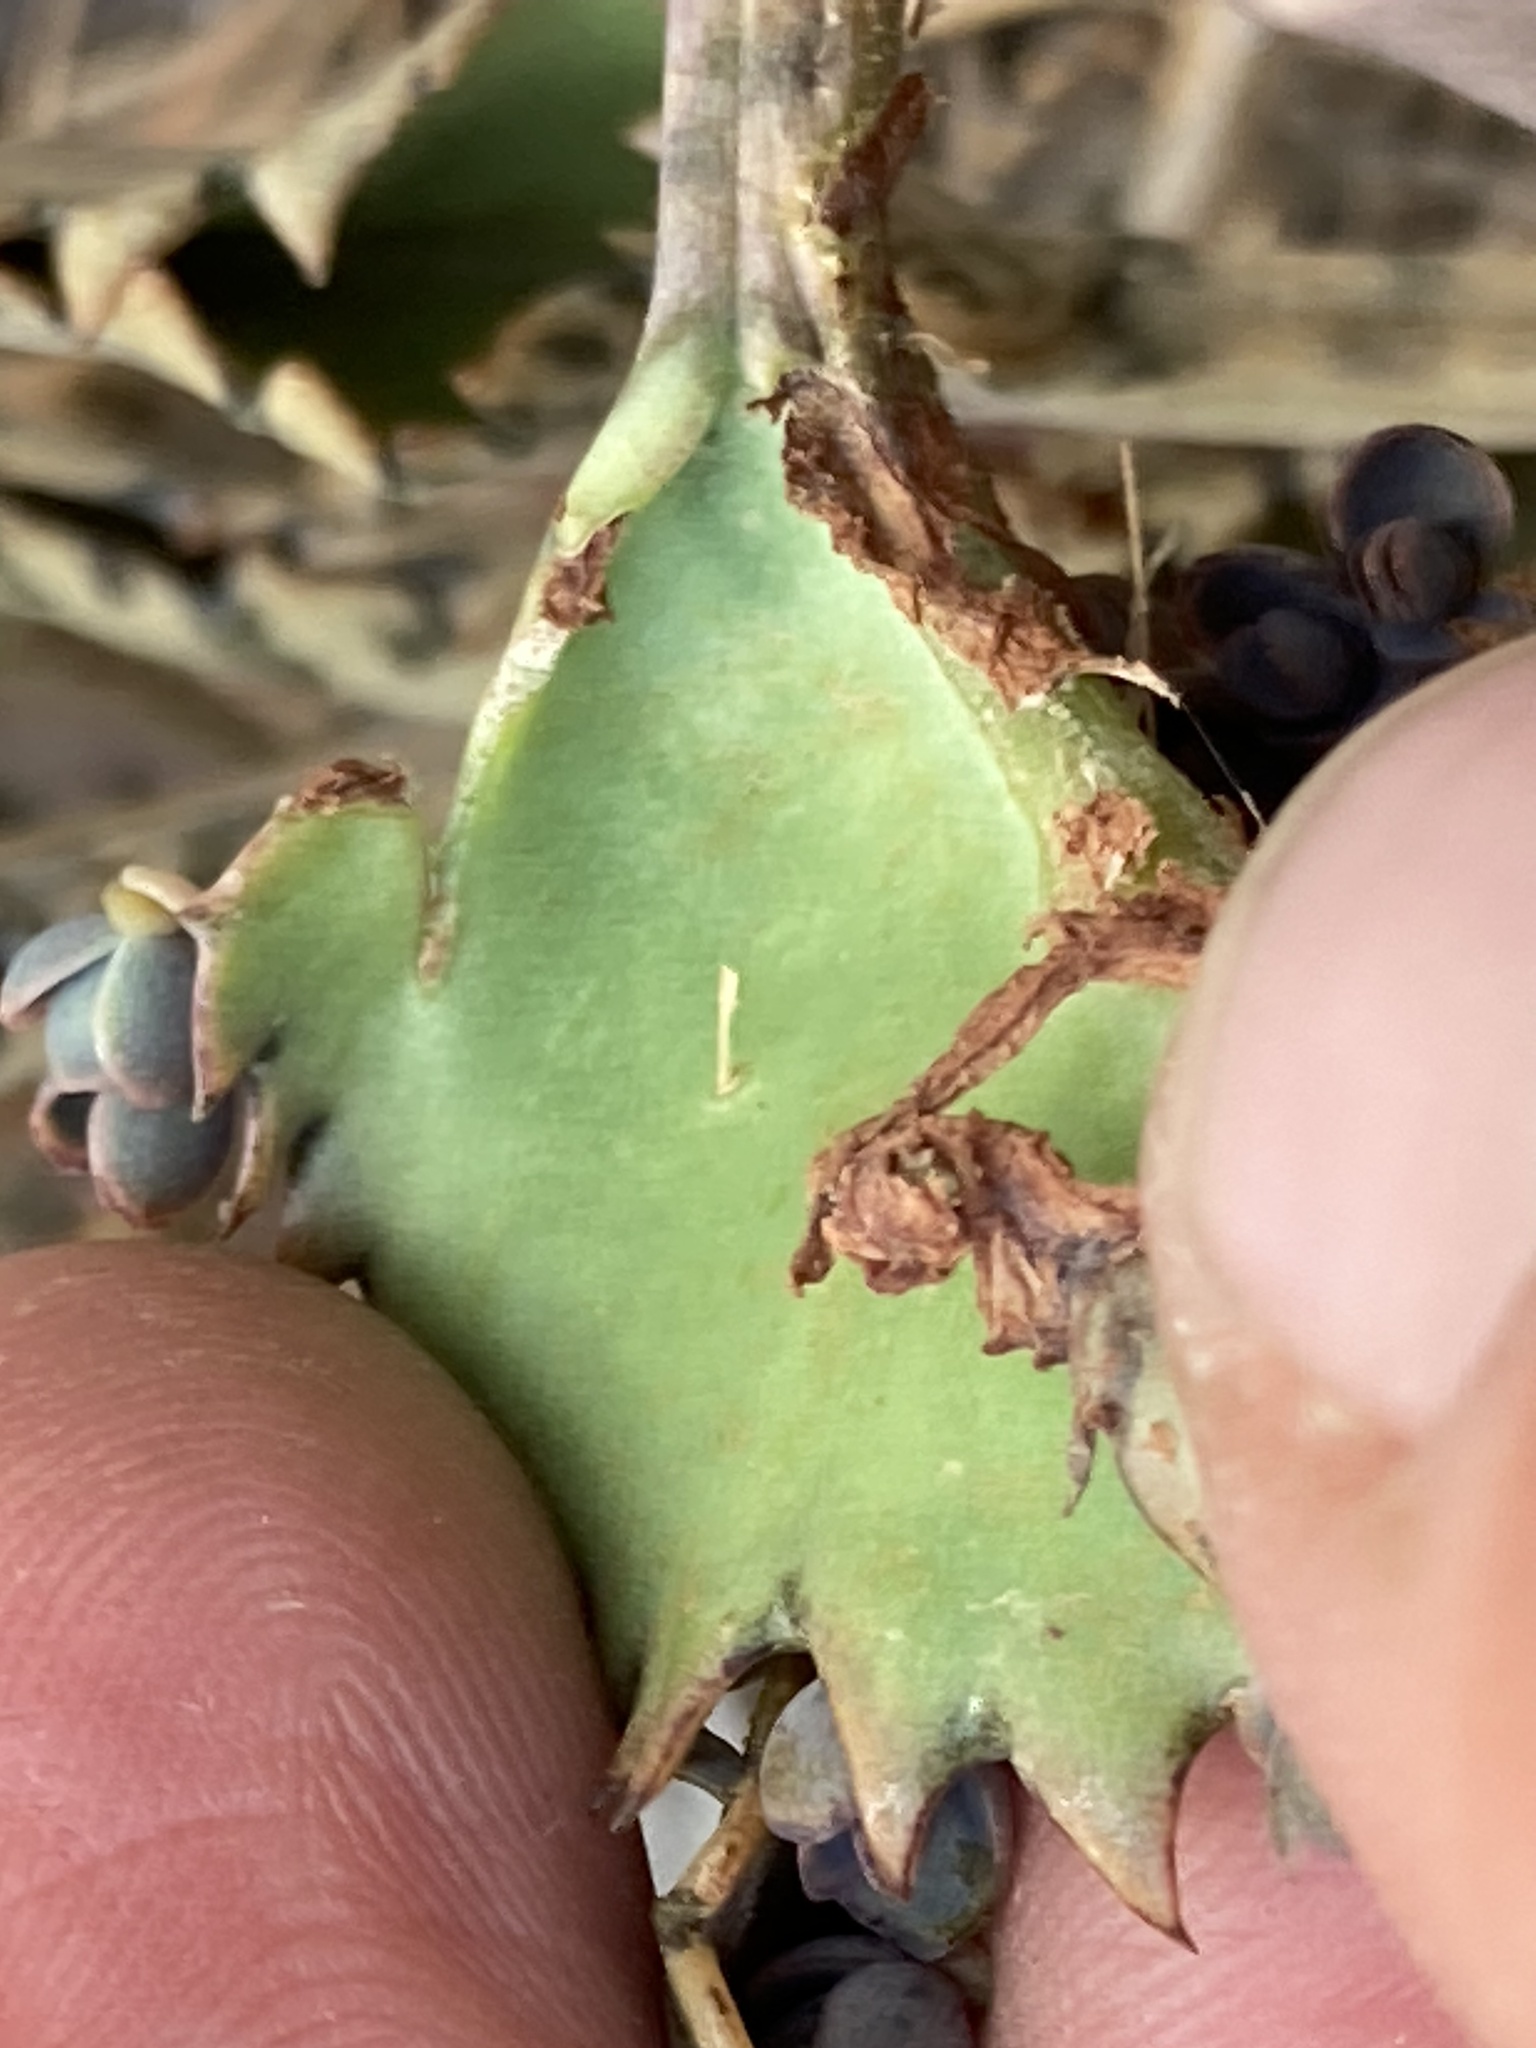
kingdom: Plantae
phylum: Tracheophyta
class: Magnoliopsida
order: Saxifragales
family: Crassulaceae
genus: Kalanchoe
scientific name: Kalanchoe houghtonii
